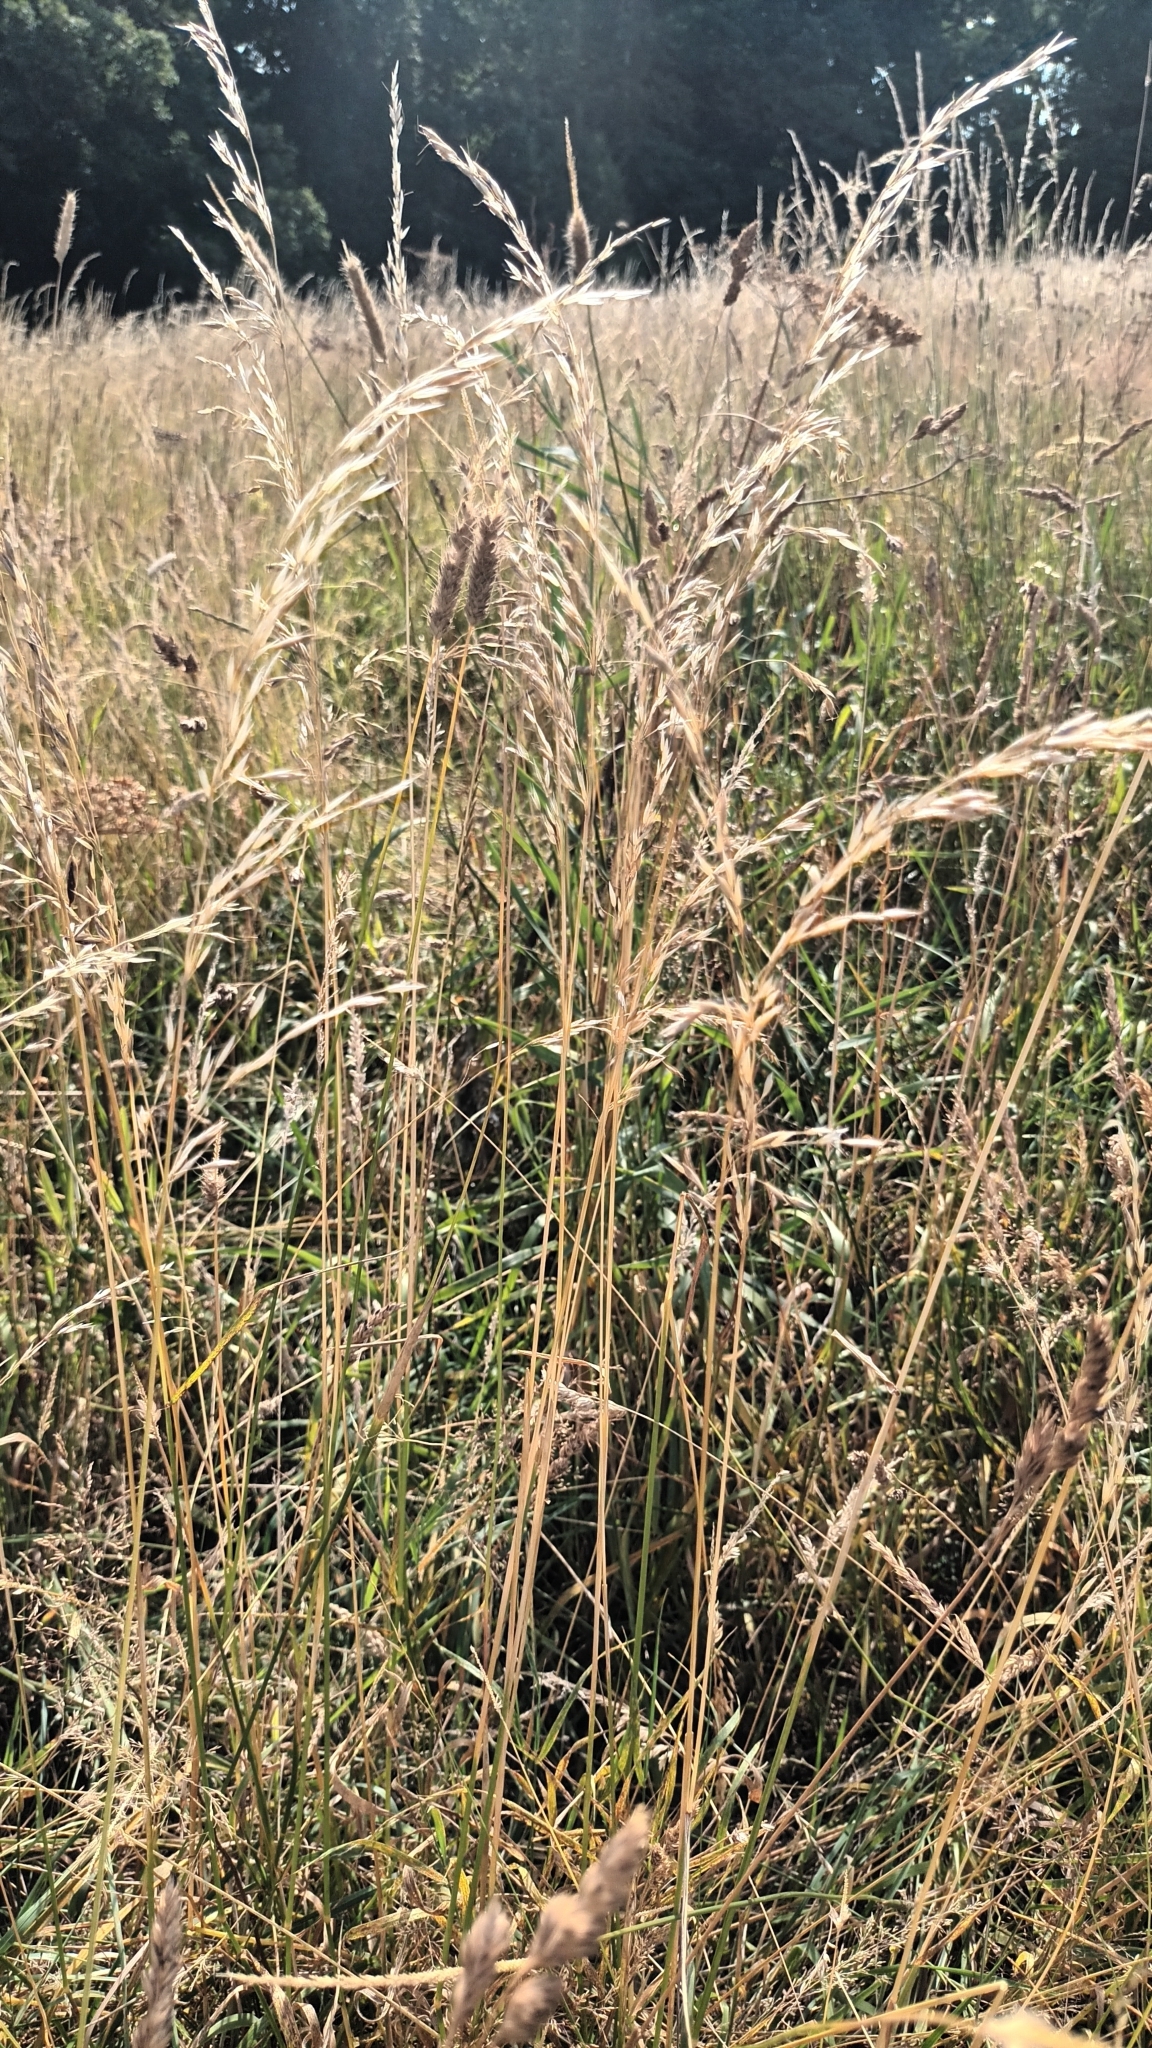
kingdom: Plantae
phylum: Tracheophyta
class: Liliopsida
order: Poales
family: Poaceae
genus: Arrhenatherum
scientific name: Arrhenatherum elatius
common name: Tall oatgrass
